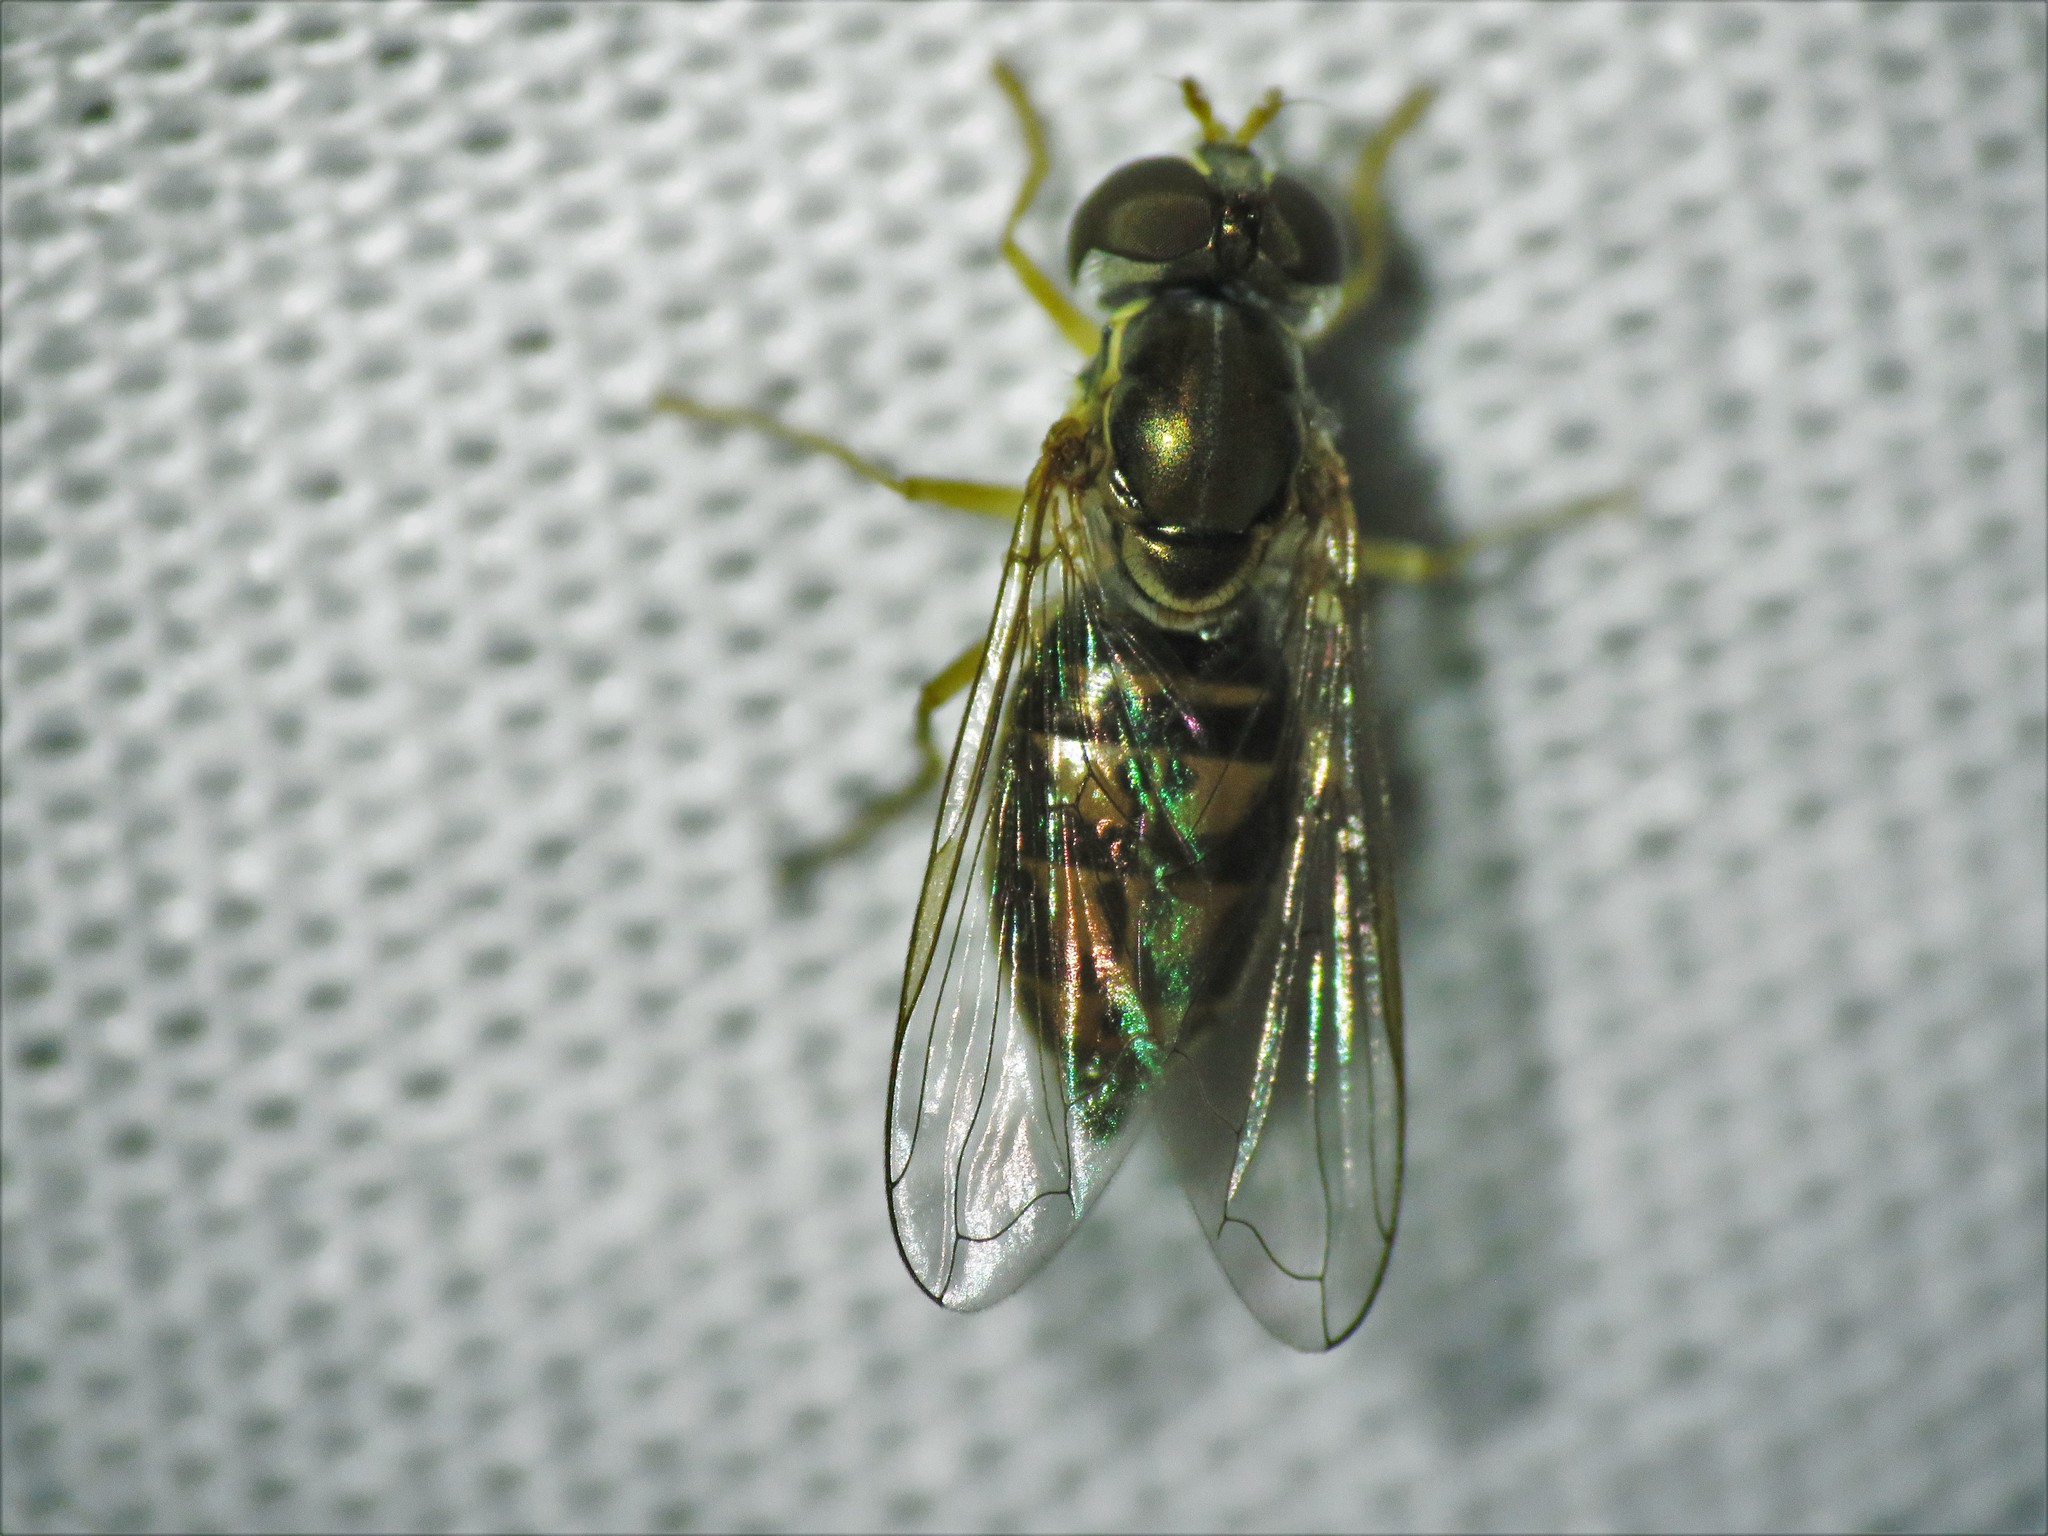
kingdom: Animalia
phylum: Arthropoda
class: Insecta
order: Diptera
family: Syrphidae
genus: Toxomerus
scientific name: Toxomerus marginatus
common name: Syrphid fly
